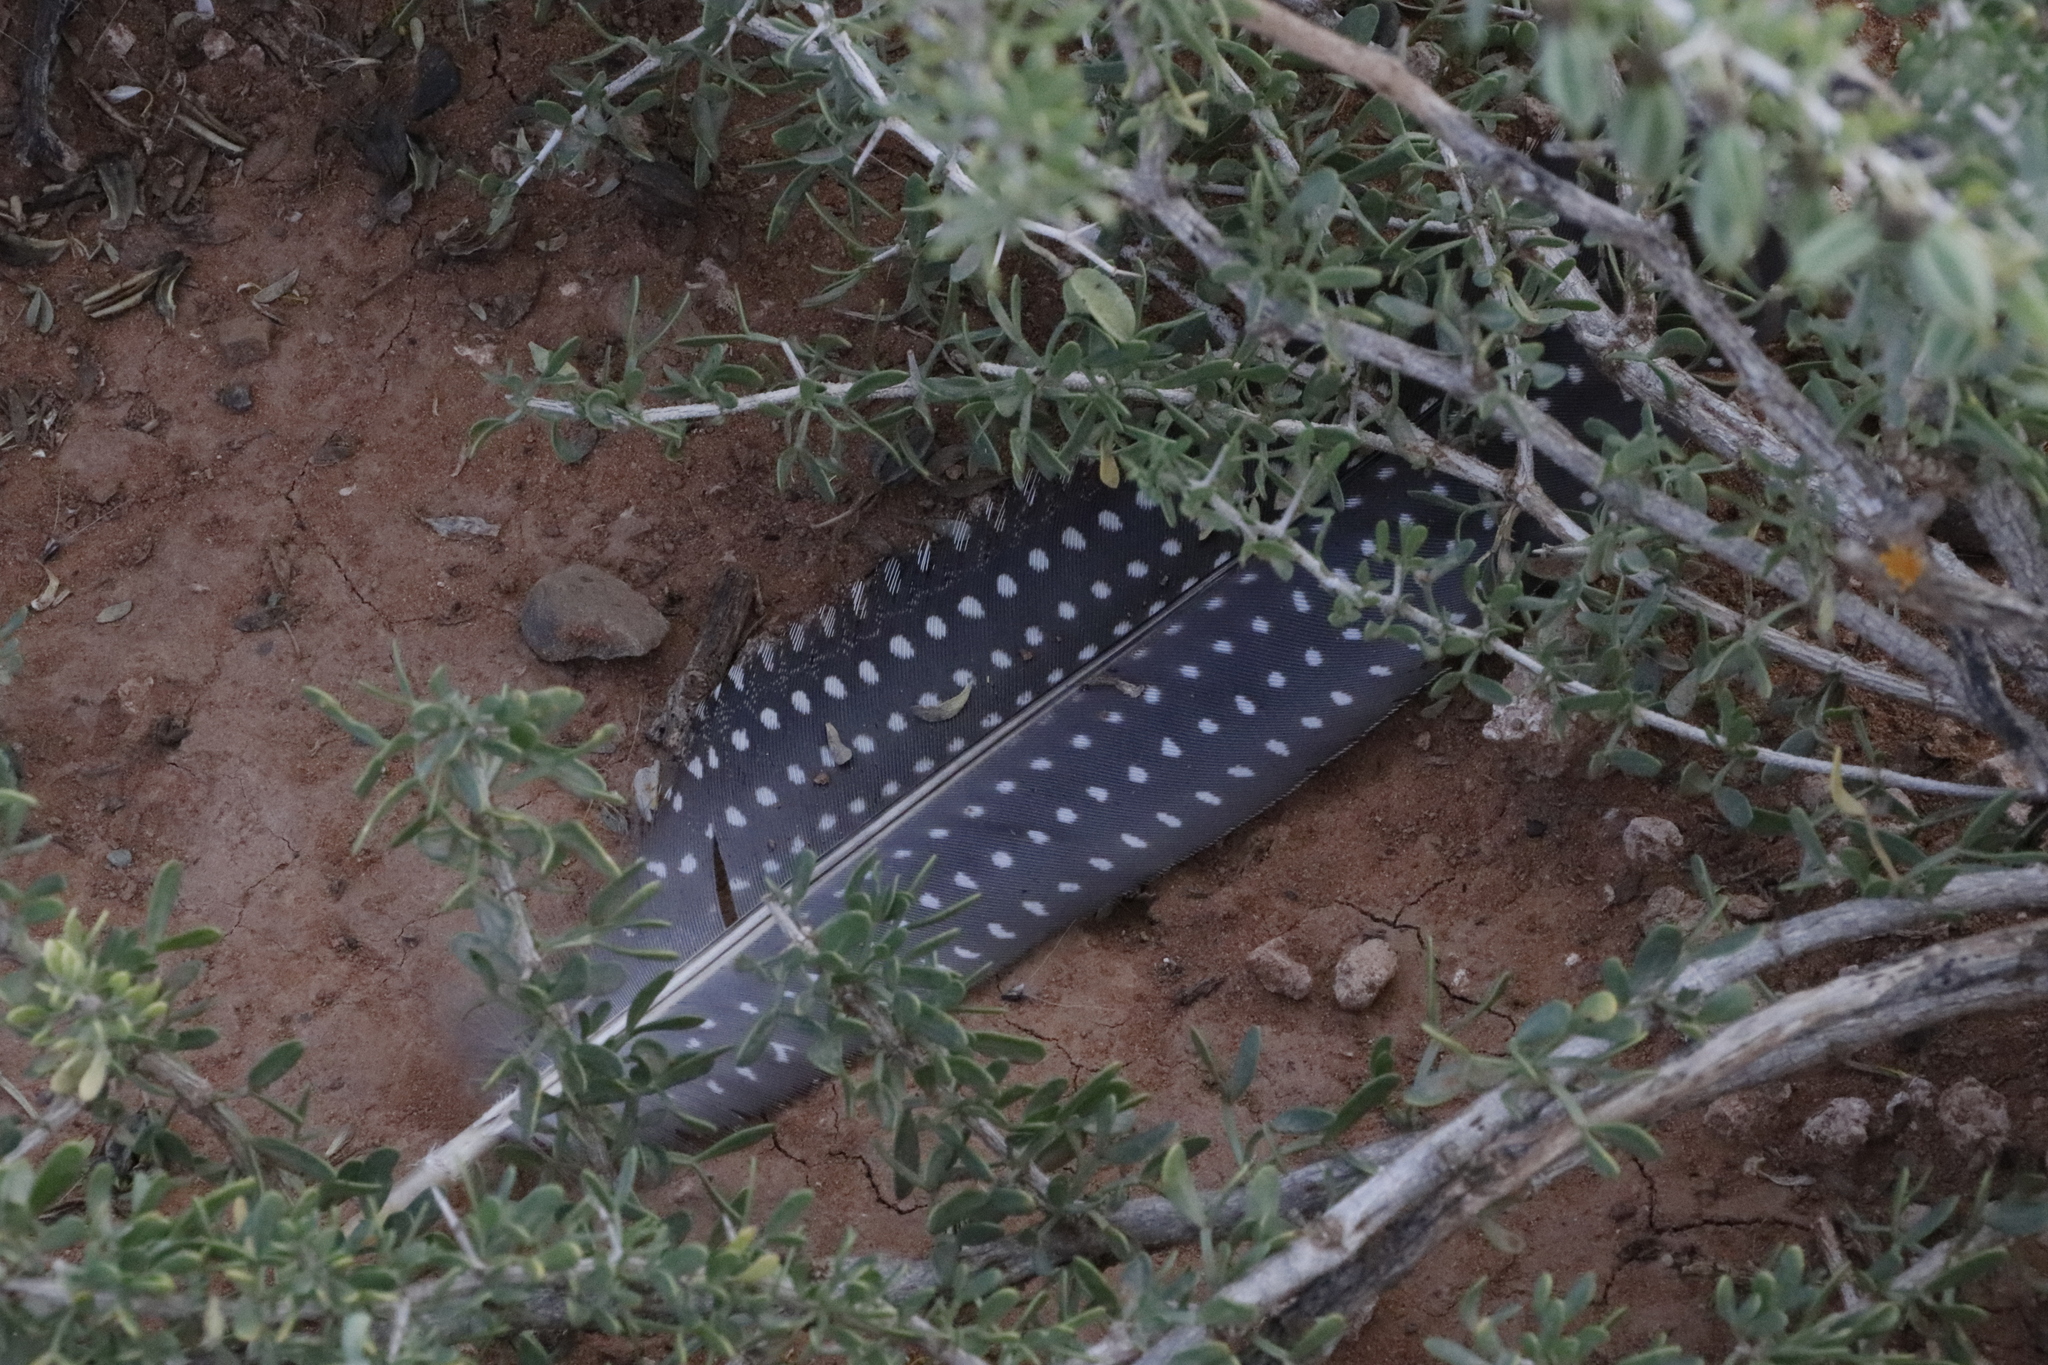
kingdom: Animalia
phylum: Chordata
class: Aves
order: Galliformes
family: Numididae
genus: Numida
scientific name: Numida meleagris
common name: Helmeted guineafowl
